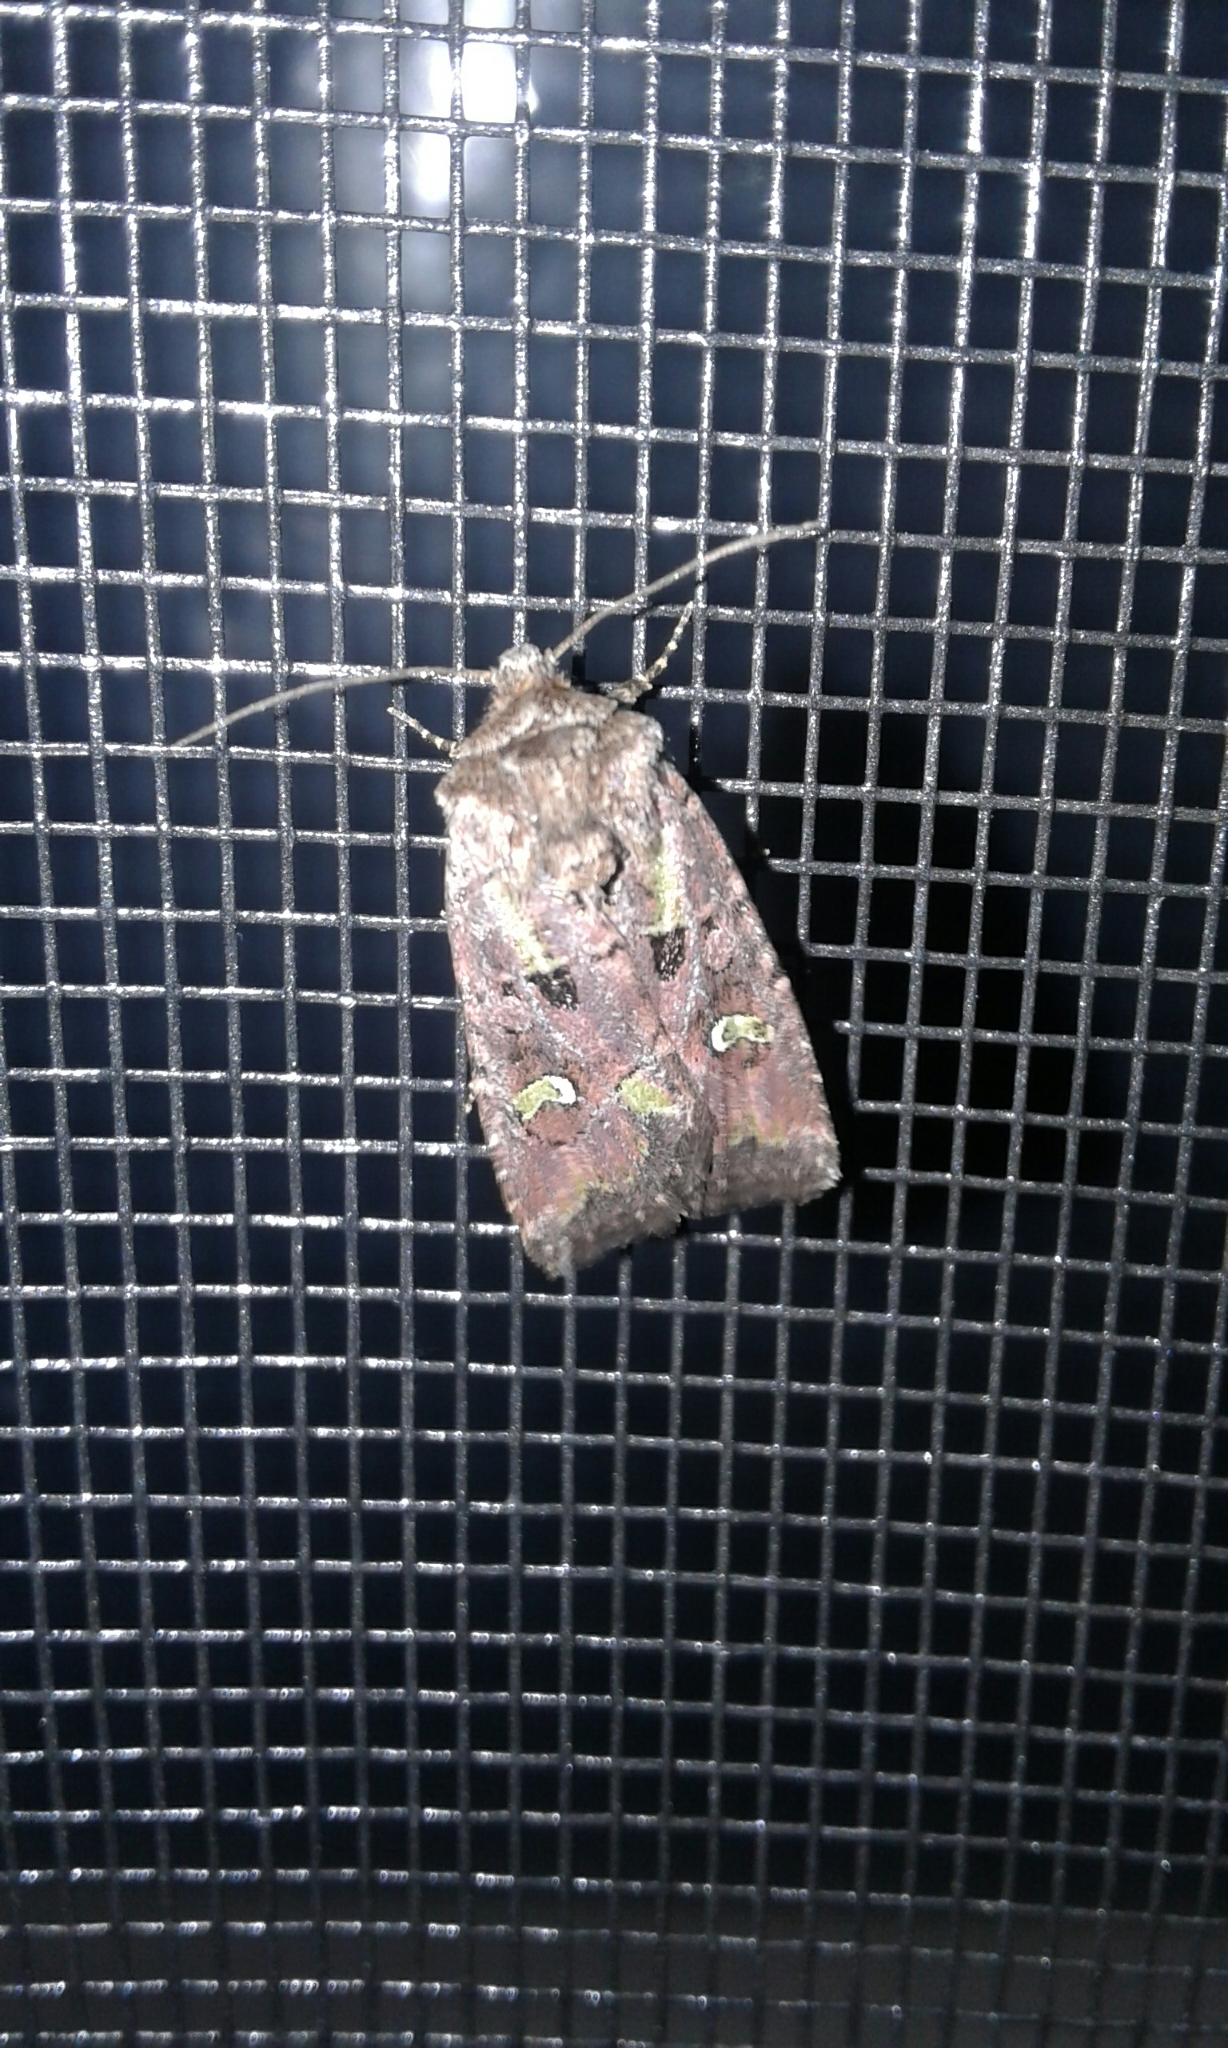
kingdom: Animalia
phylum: Arthropoda
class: Insecta
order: Lepidoptera
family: Noctuidae
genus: Lacinipolia
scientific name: Lacinipolia renigera
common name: Kidney-spotted minor
